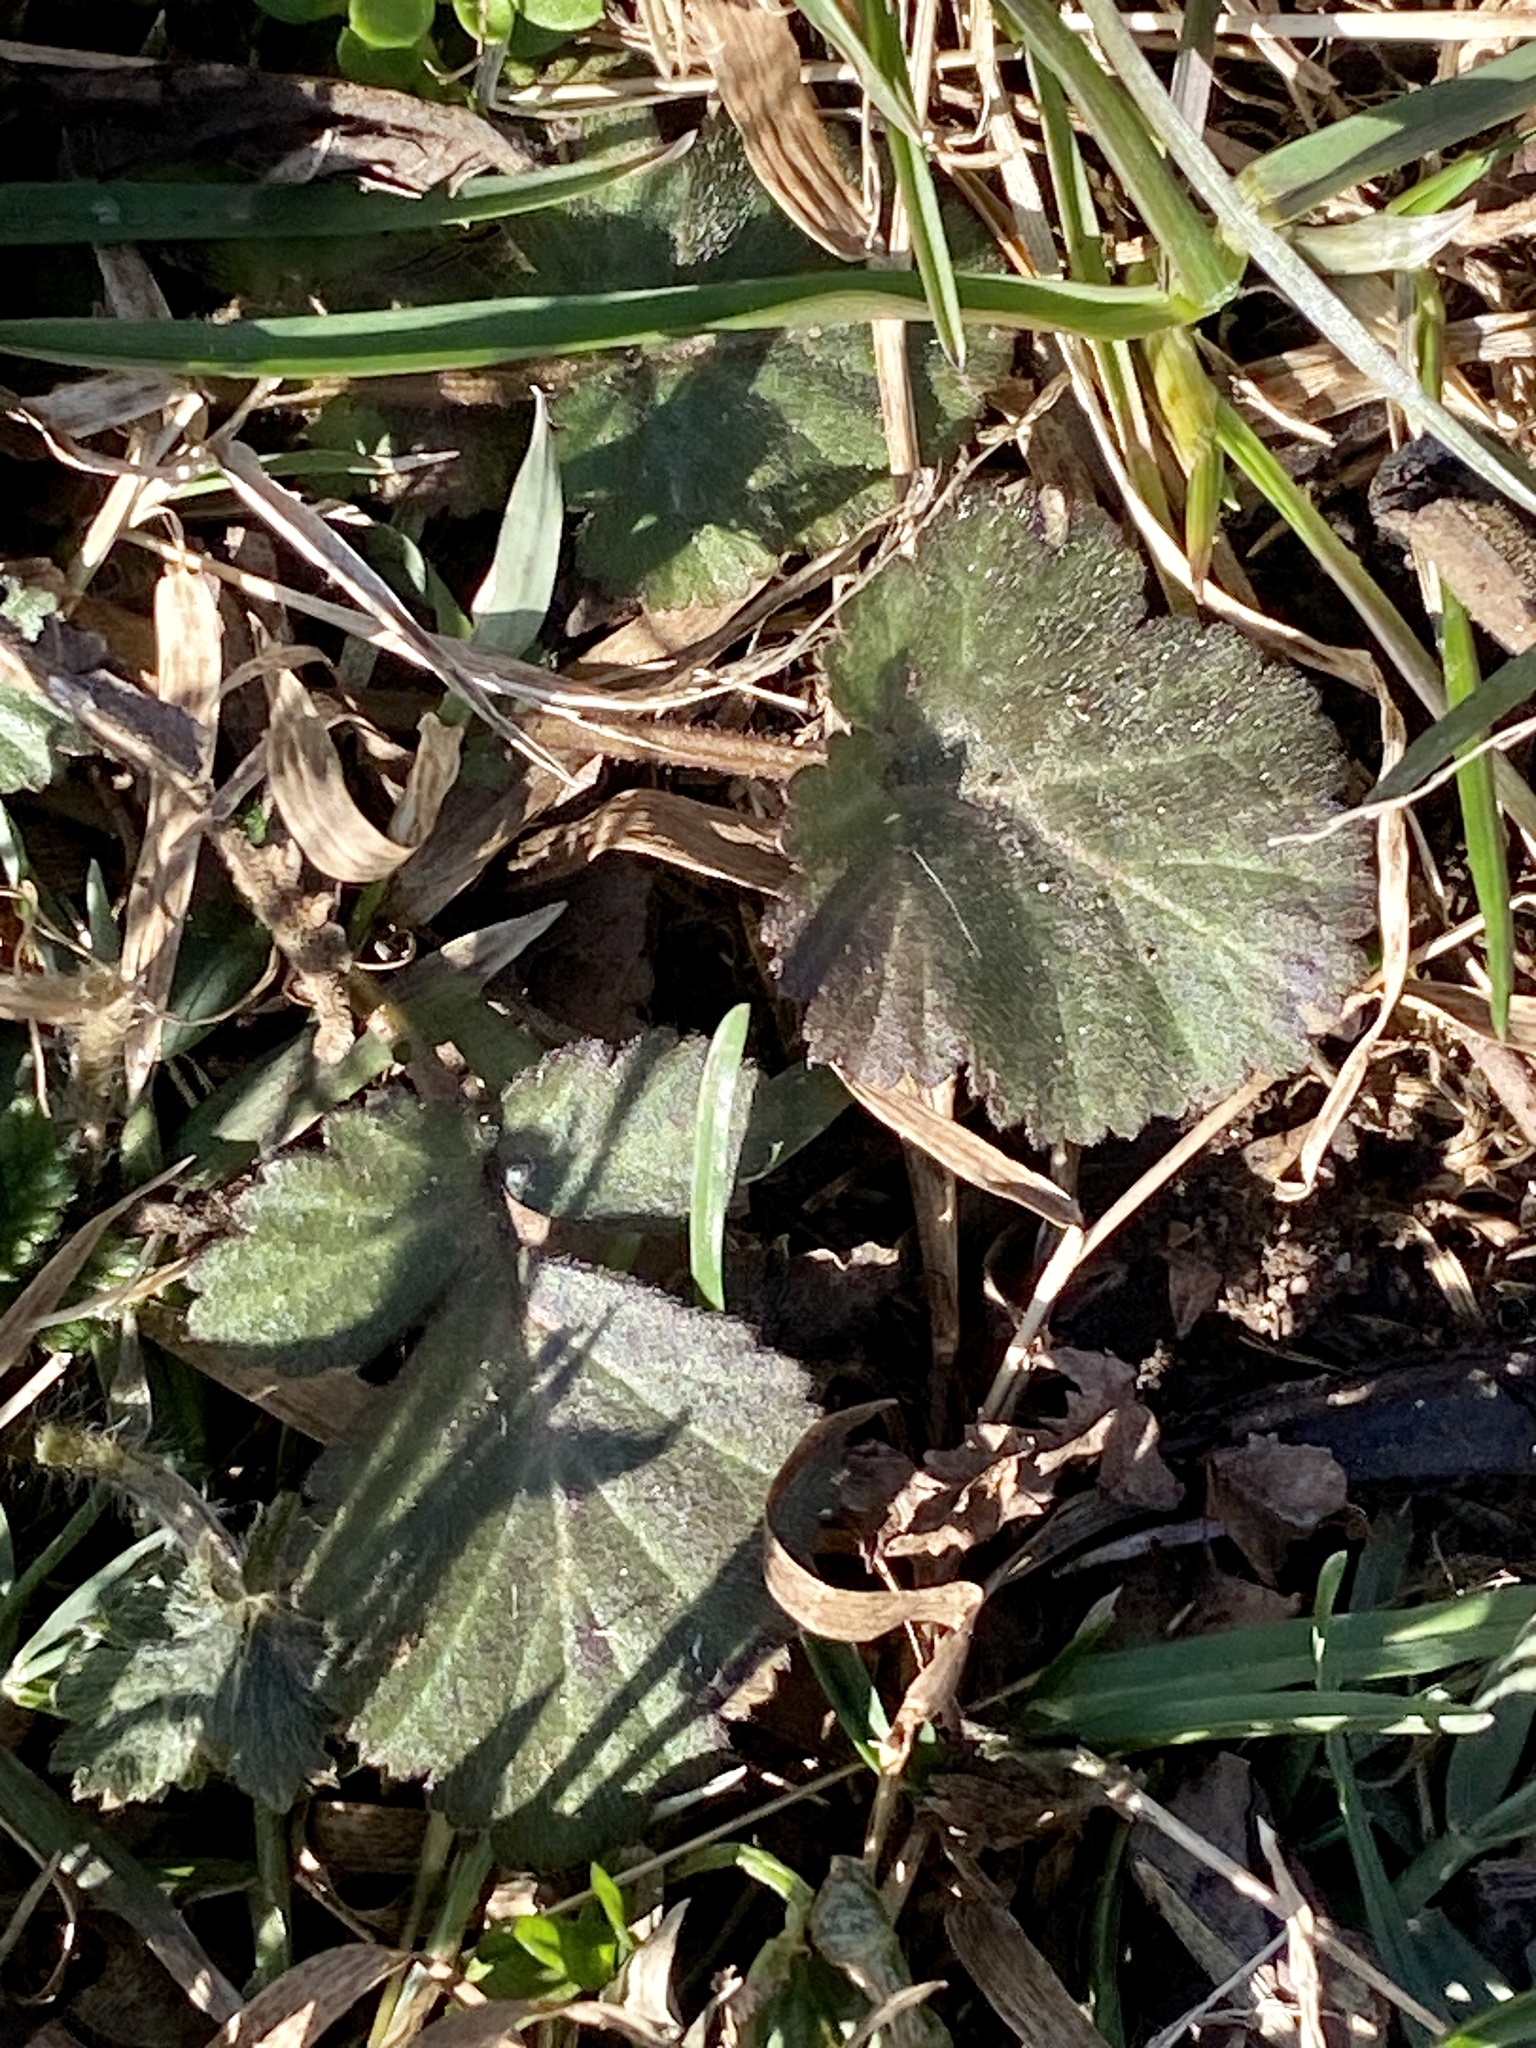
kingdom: Plantae
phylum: Tracheophyta
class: Magnoliopsida
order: Rosales
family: Rosaceae
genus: Geum
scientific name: Geum canadense
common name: White avens
